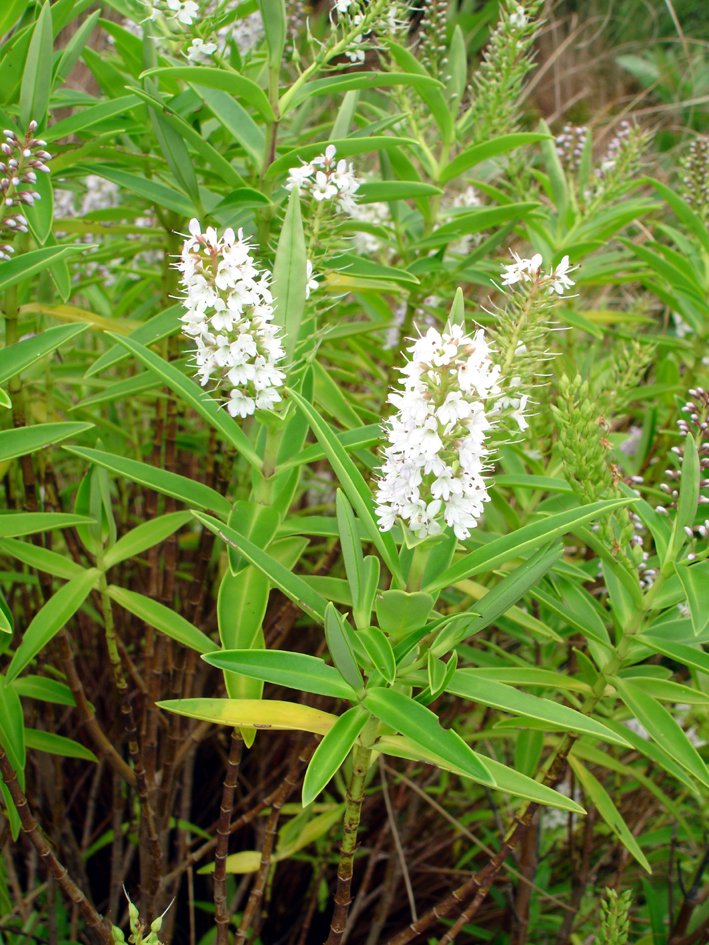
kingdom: Plantae
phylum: Tracheophyta
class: Magnoliopsida
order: Lamiales
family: Plantaginaceae
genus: Veronica
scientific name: Veronica barkeri
